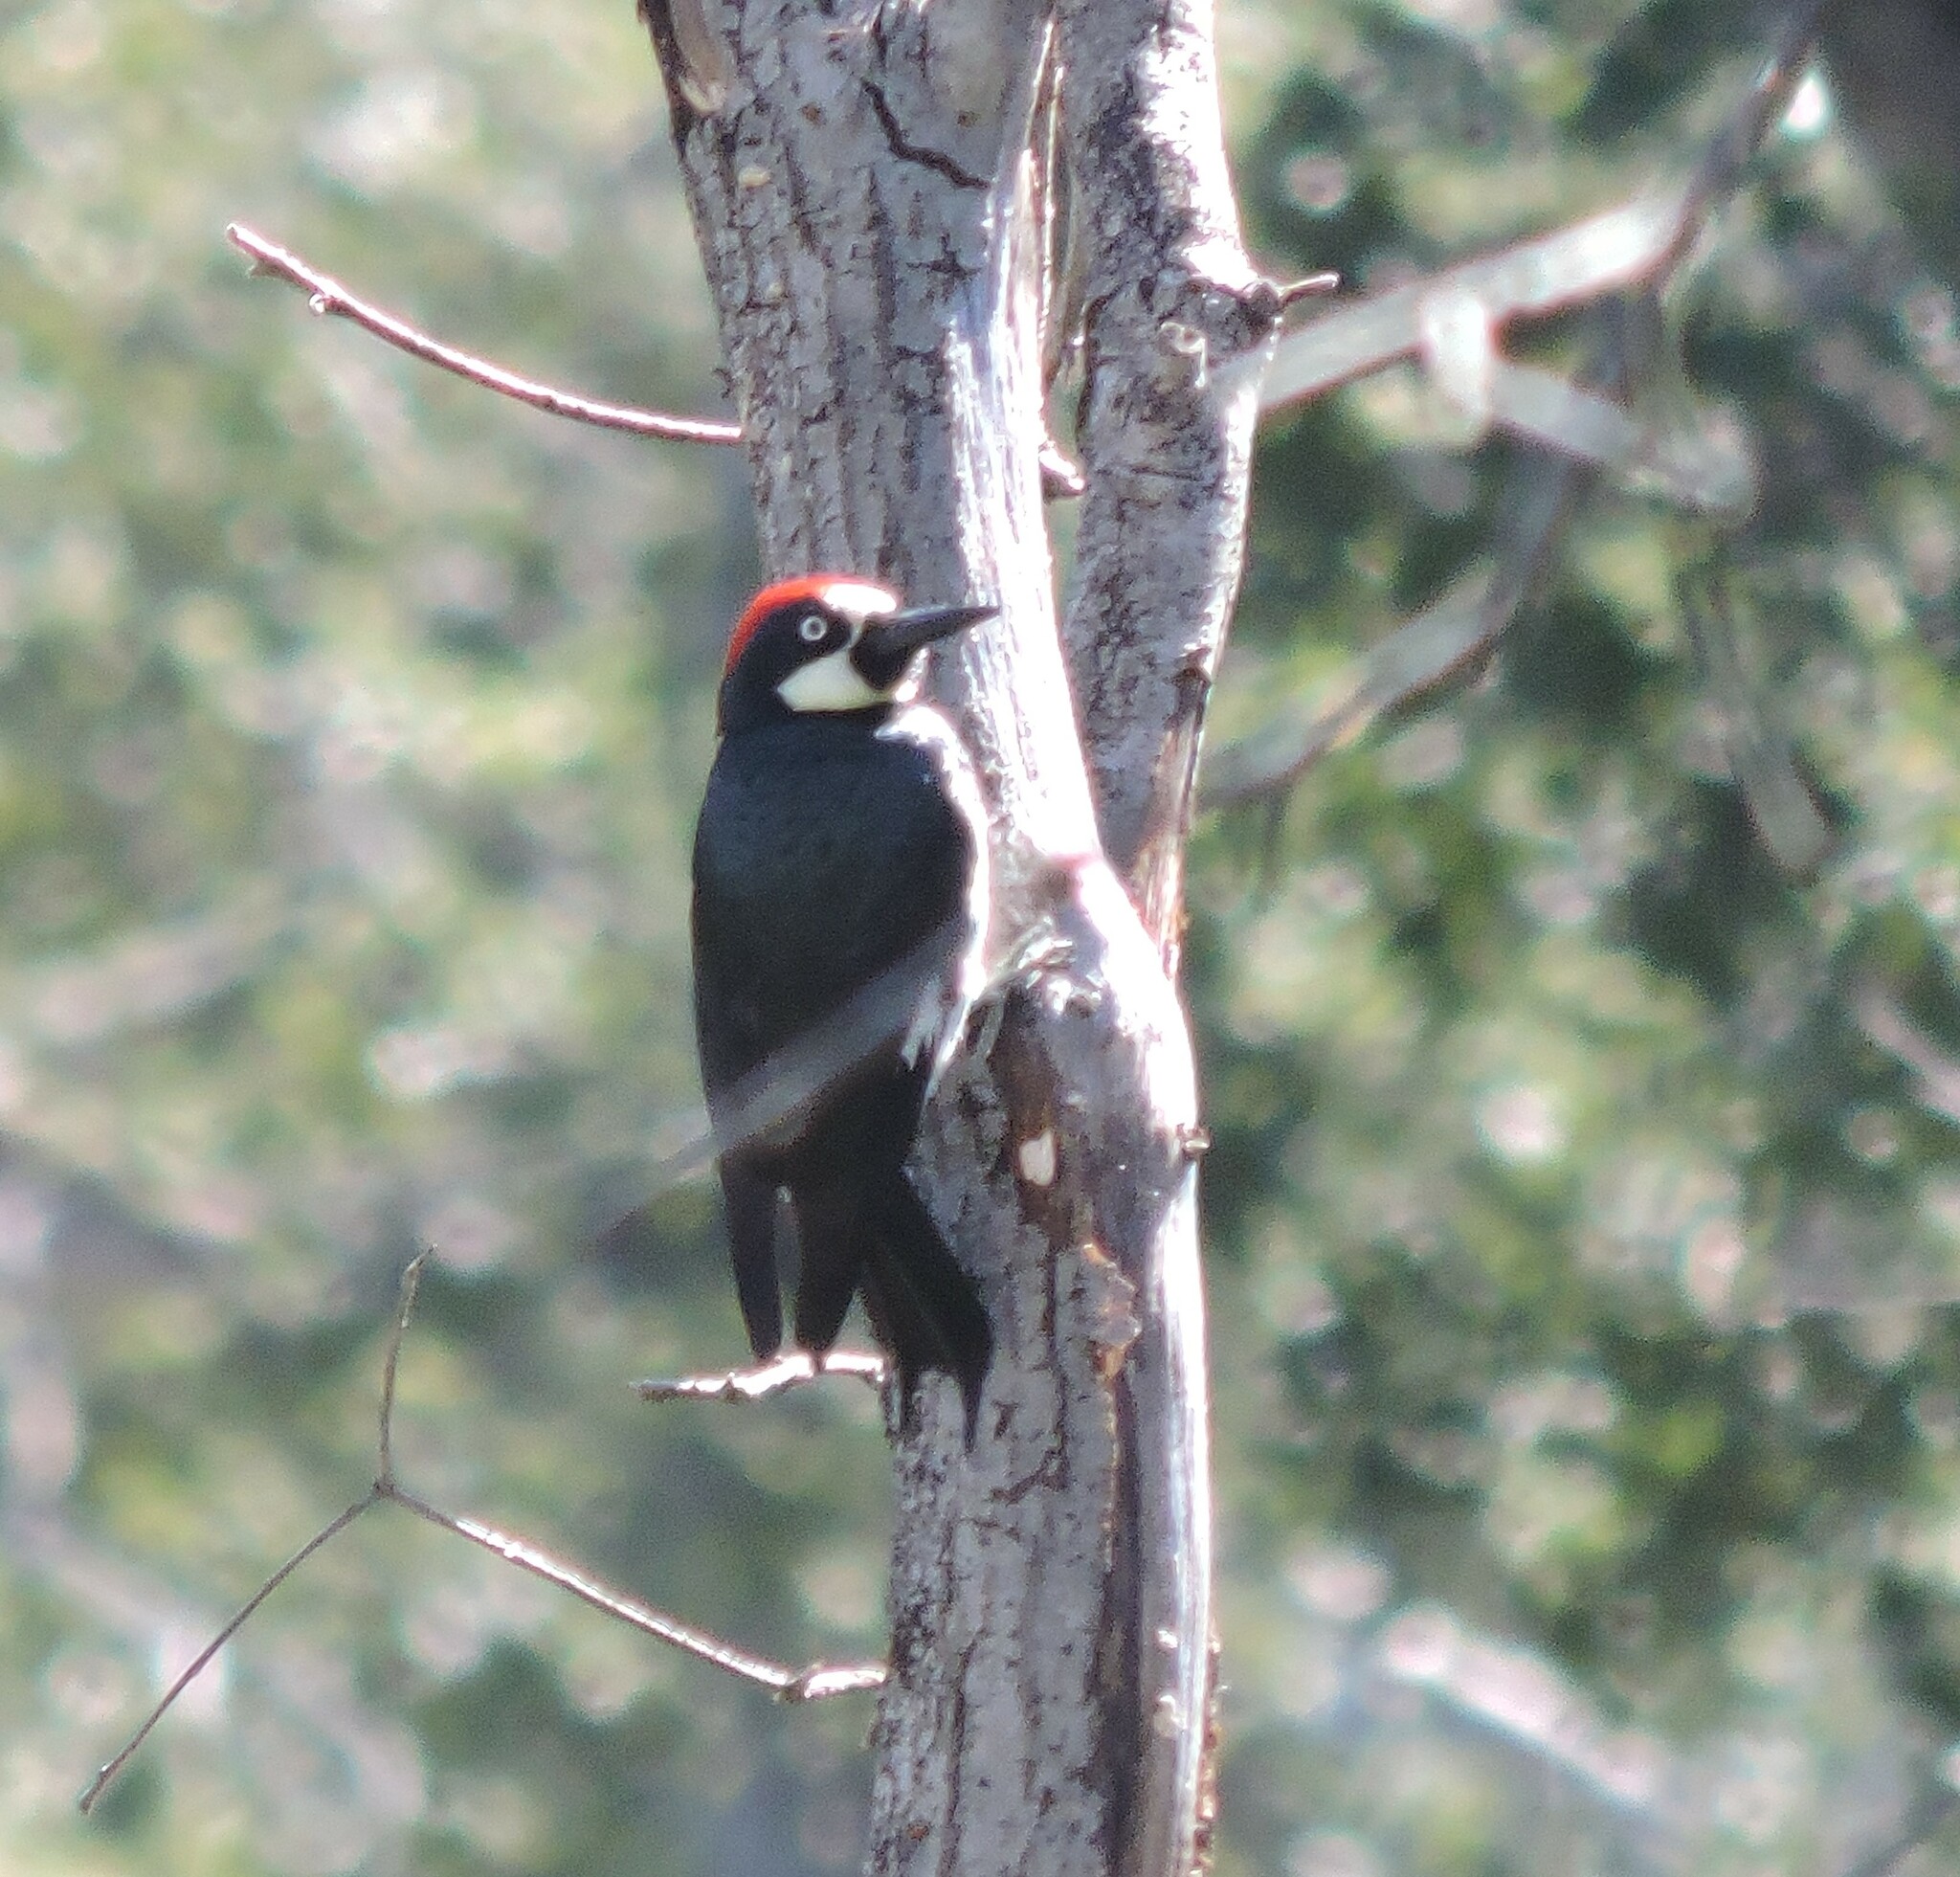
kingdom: Animalia
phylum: Chordata
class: Aves
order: Piciformes
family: Picidae
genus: Melanerpes
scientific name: Melanerpes formicivorus
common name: Acorn woodpecker
